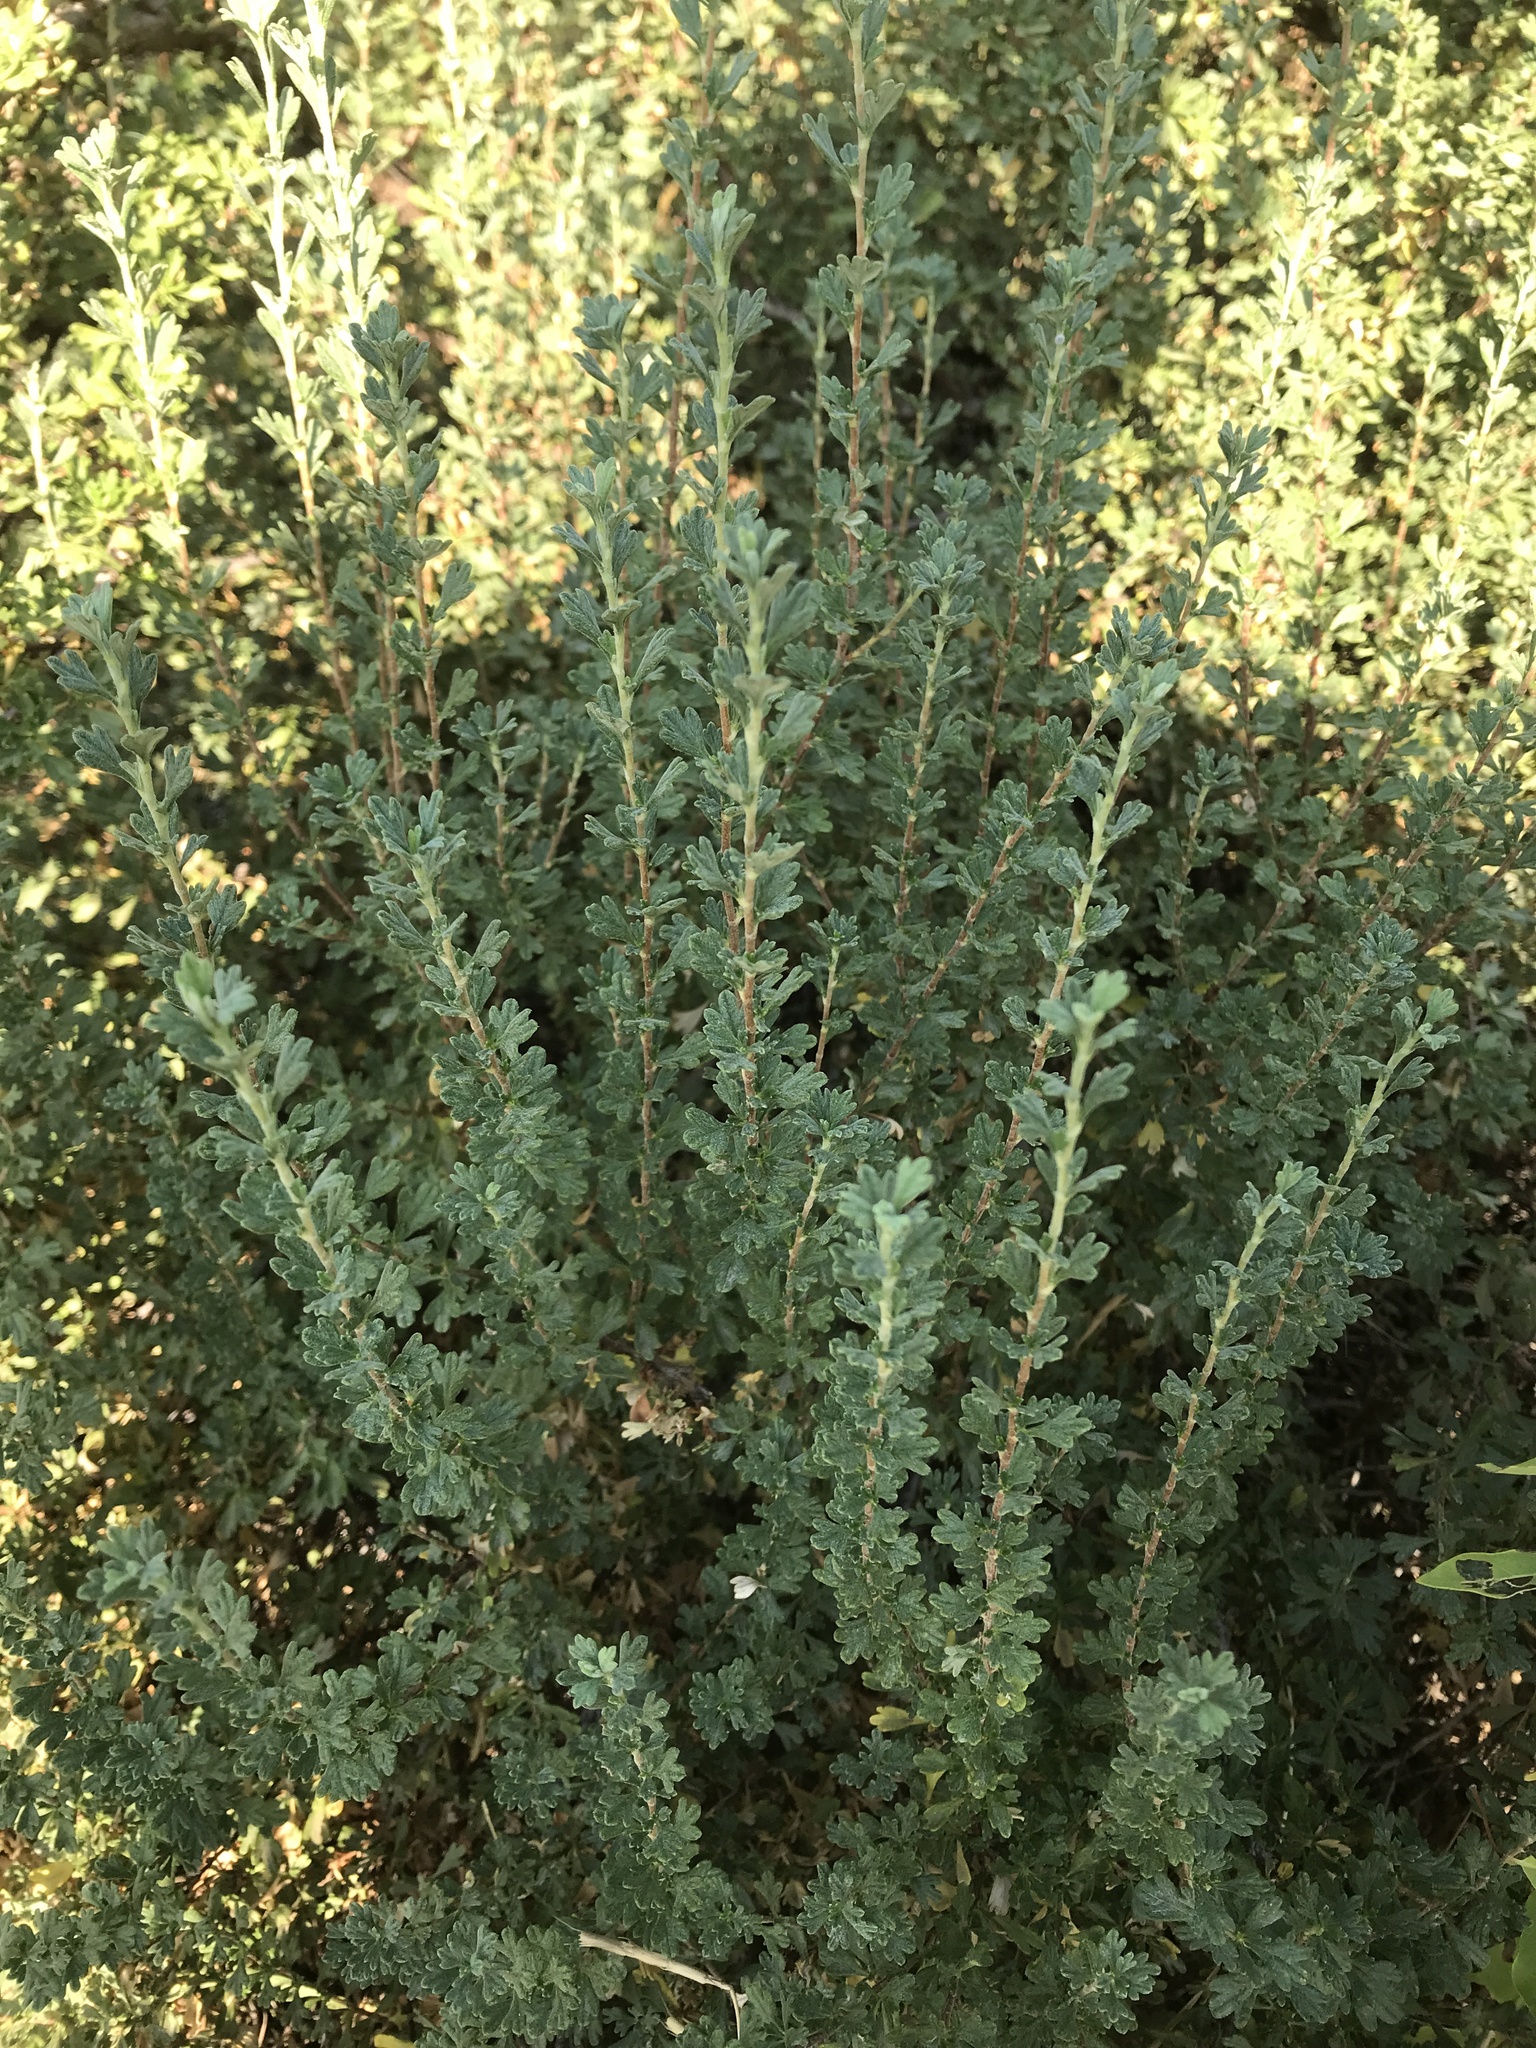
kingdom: Plantae
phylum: Tracheophyta
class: Magnoliopsida
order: Rosales
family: Rosaceae
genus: Purshia
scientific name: Purshia tridentata
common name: Antelope bitterbrush
